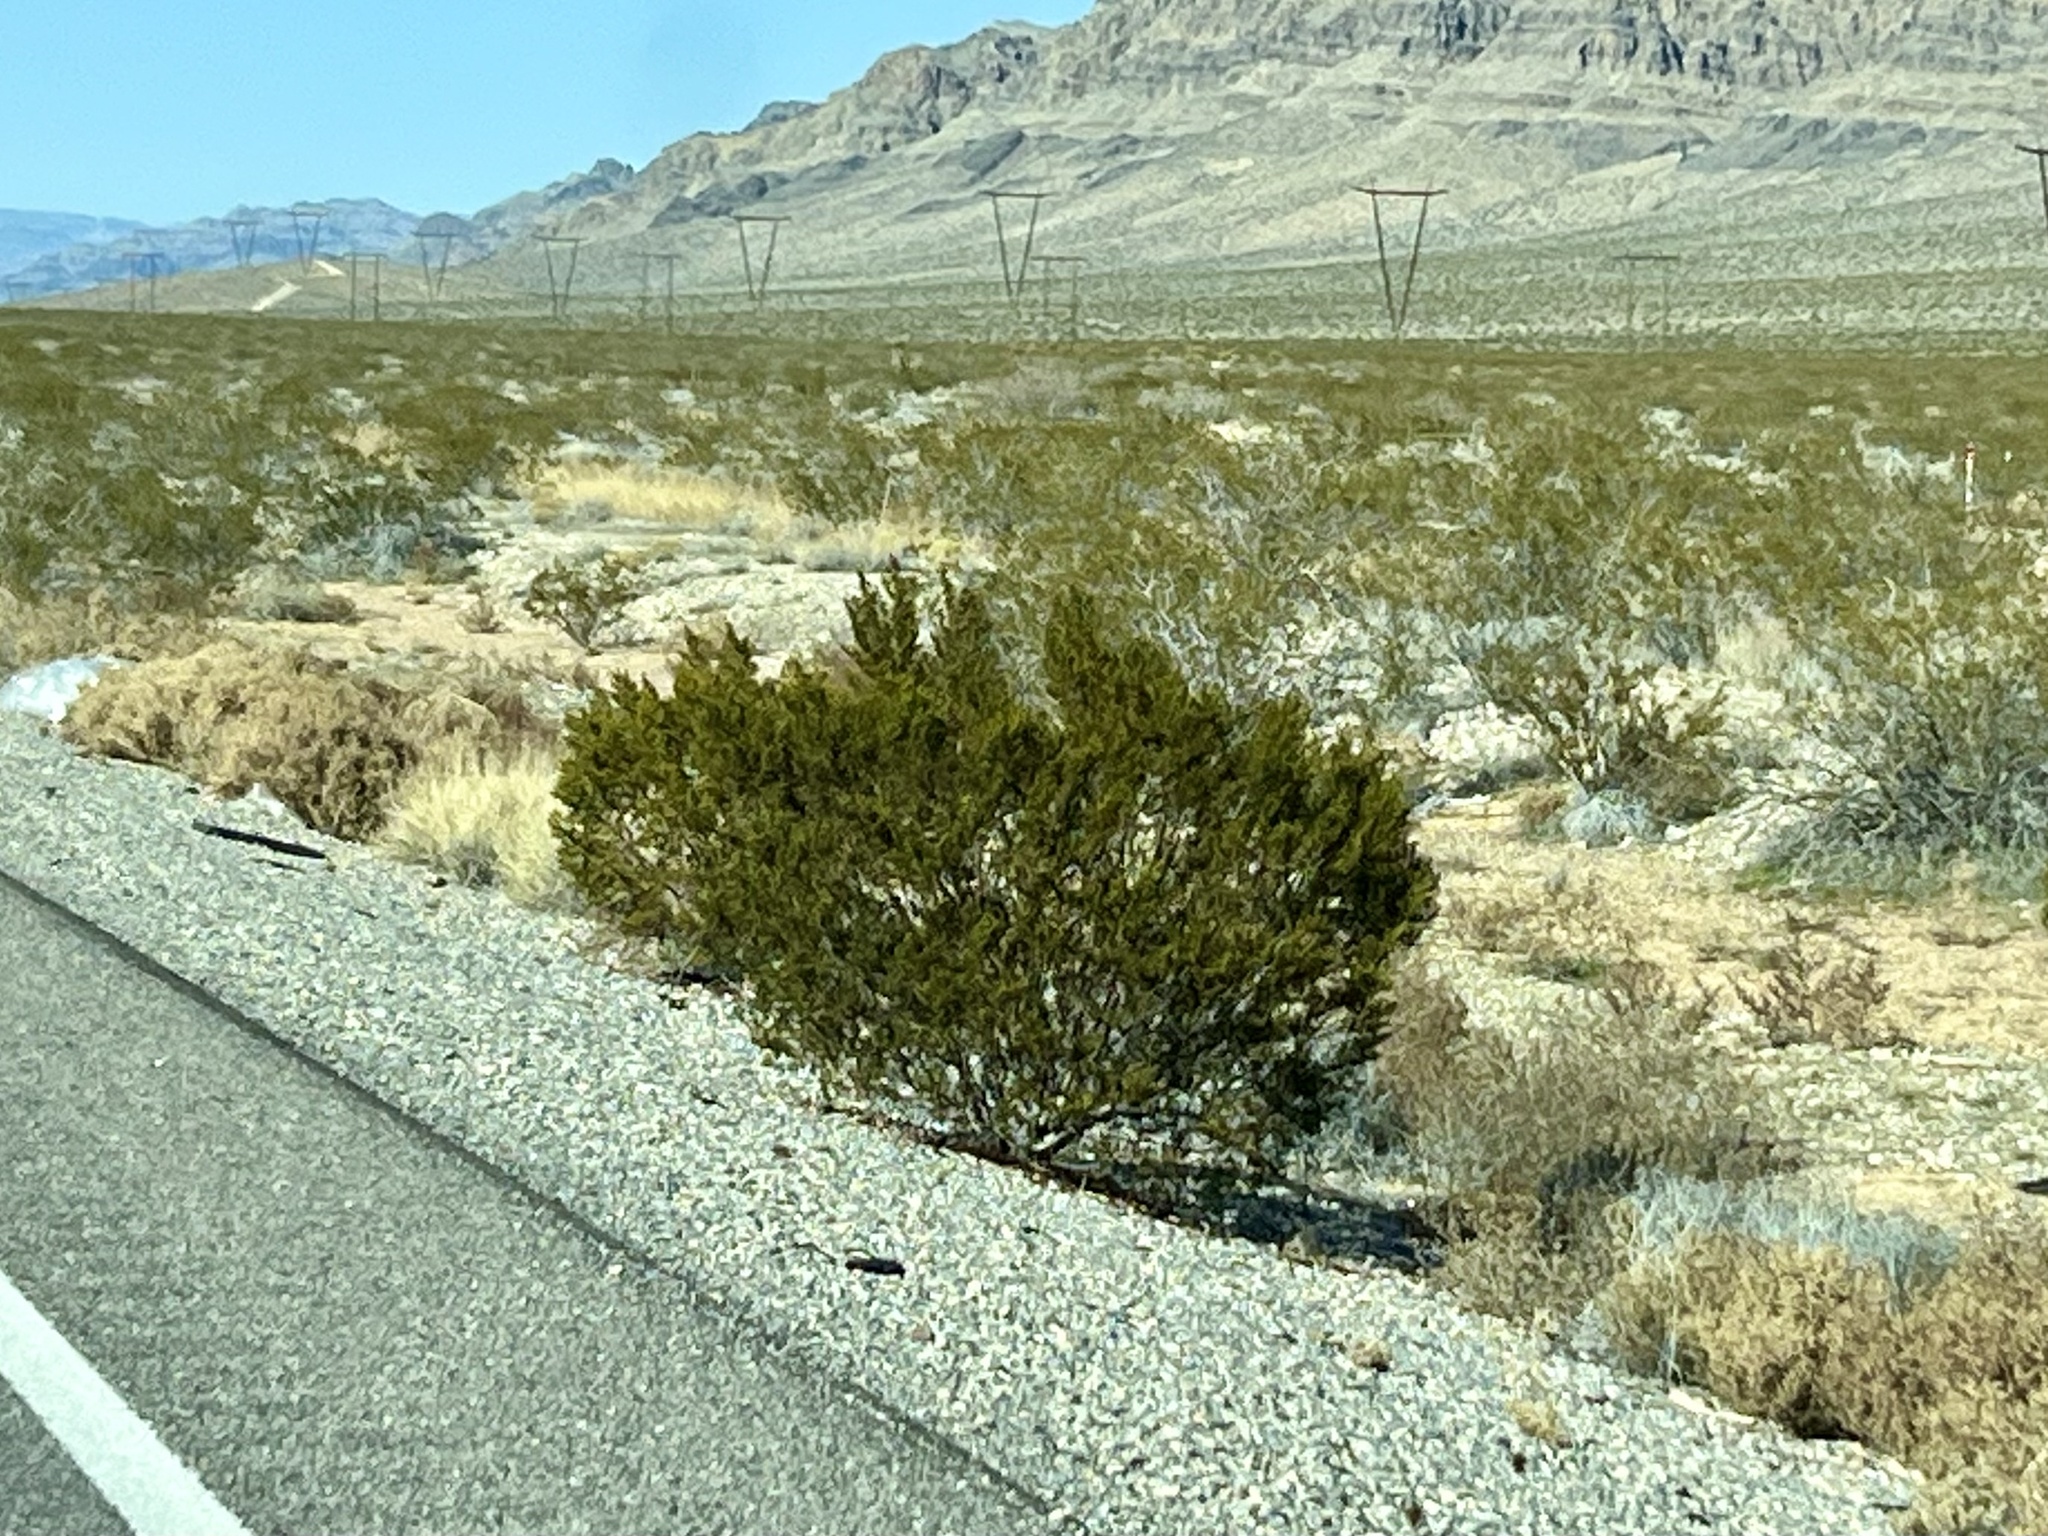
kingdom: Plantae
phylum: Tracheophyta
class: Magnoliopsida
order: Zygophyllales
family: Zygophyllaceae
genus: Larrea
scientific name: Larrea tridentata
